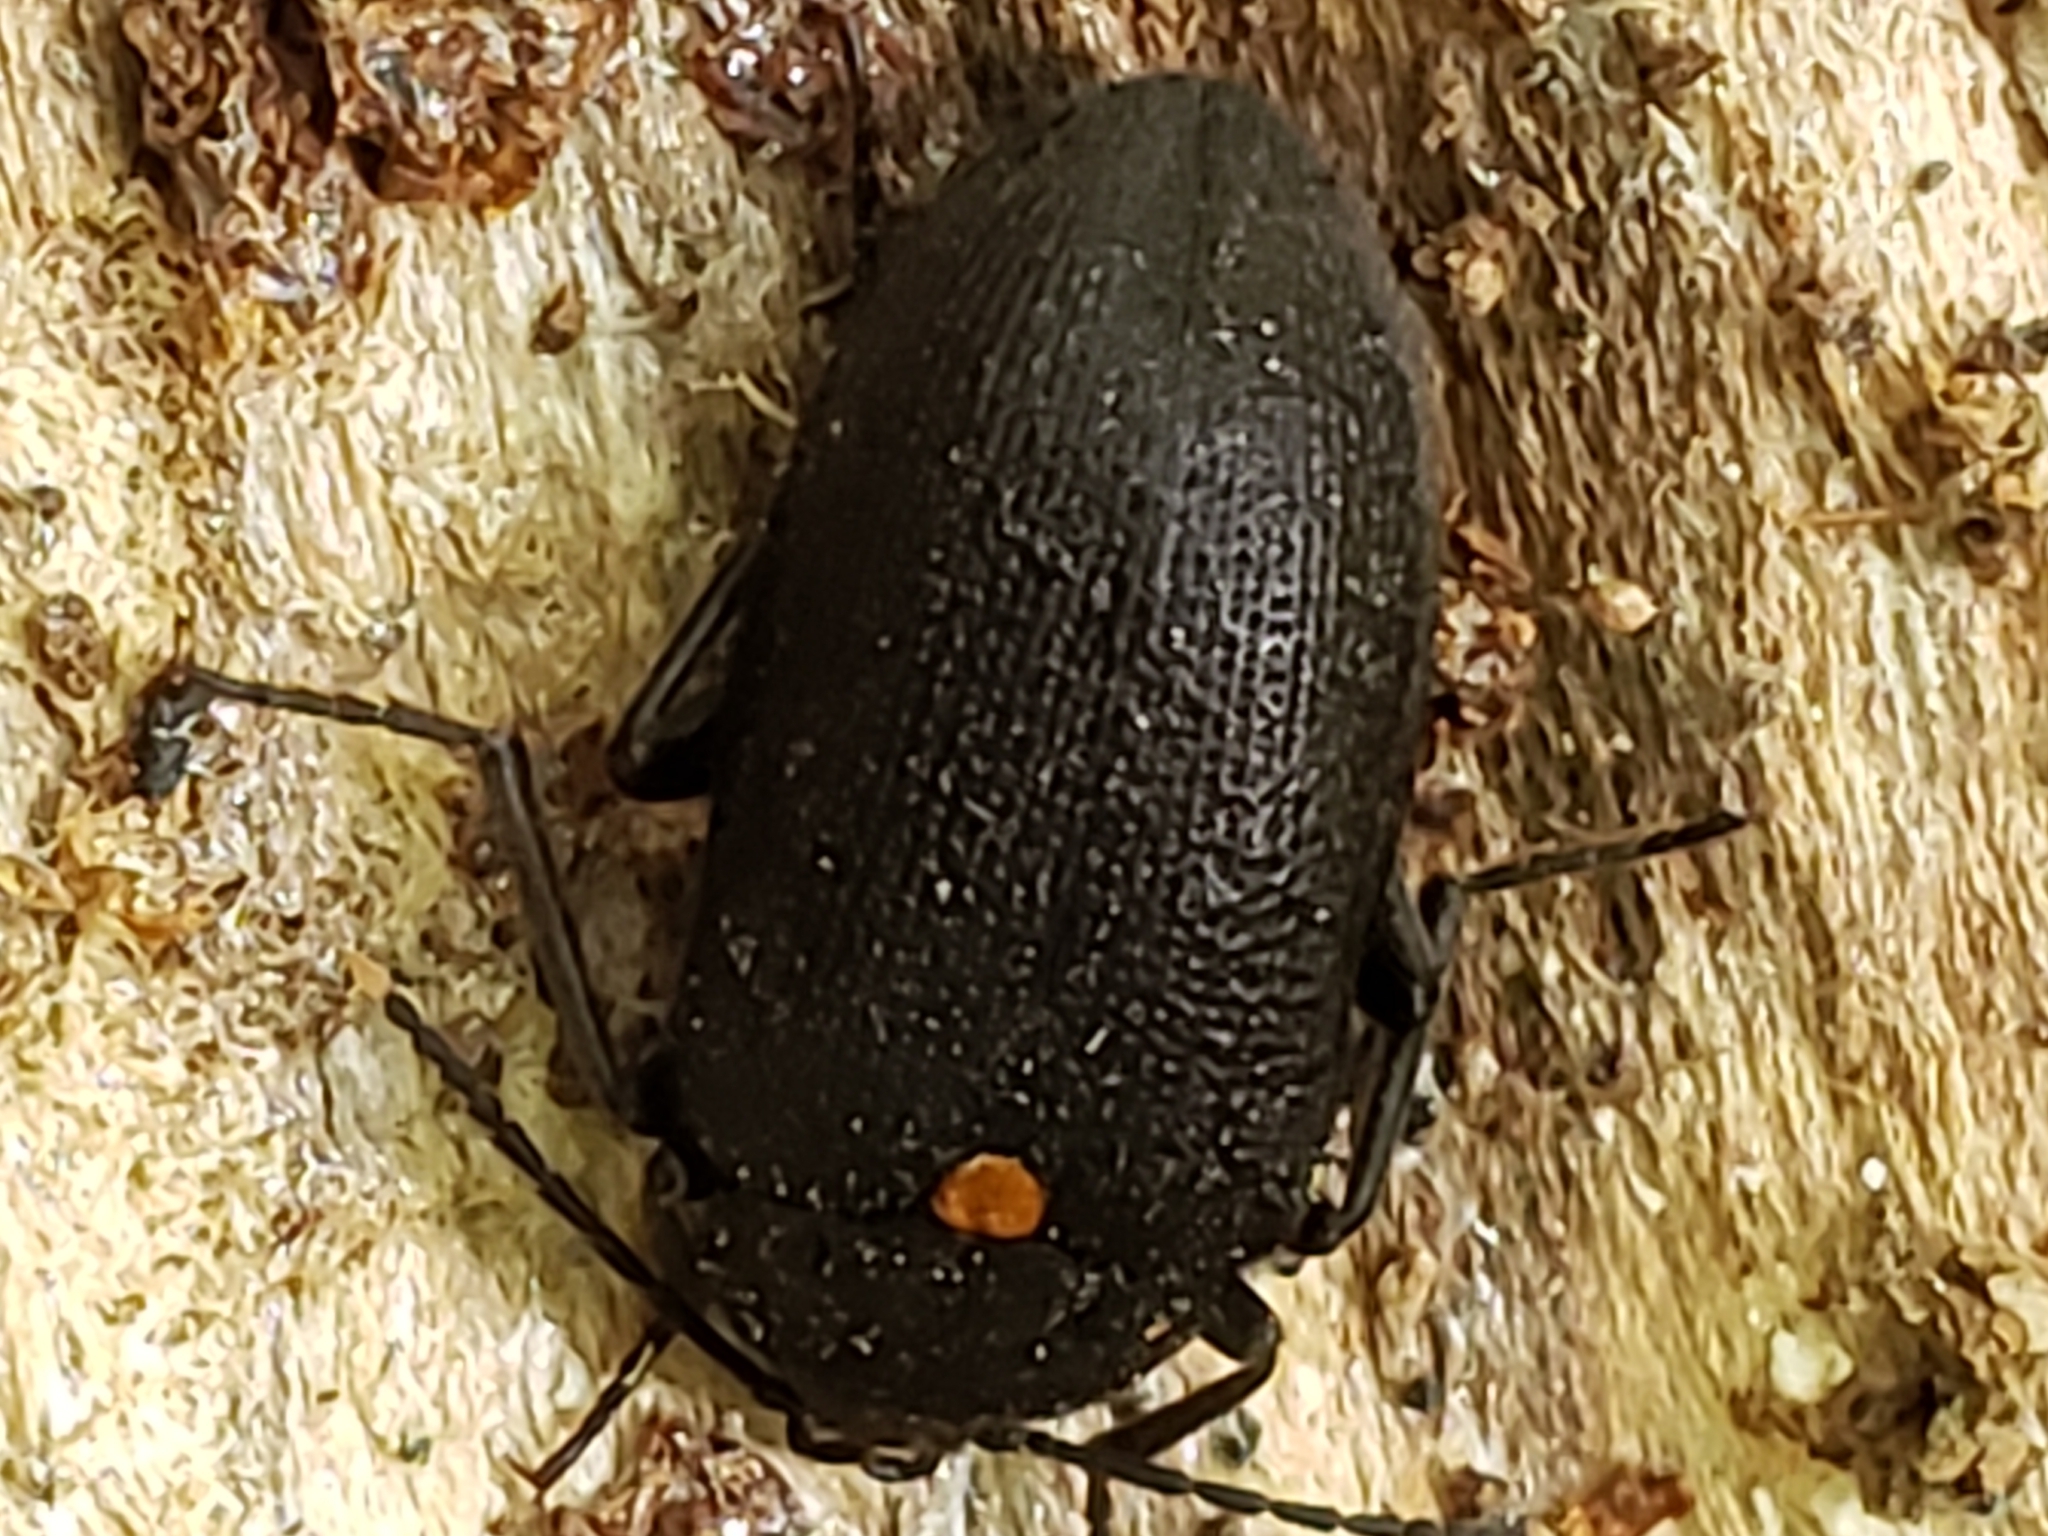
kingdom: Animalia
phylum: Arthropoda
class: Insecta
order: Coleoptera
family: Tetratomidae
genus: Penthe
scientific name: Penthe obliquata
